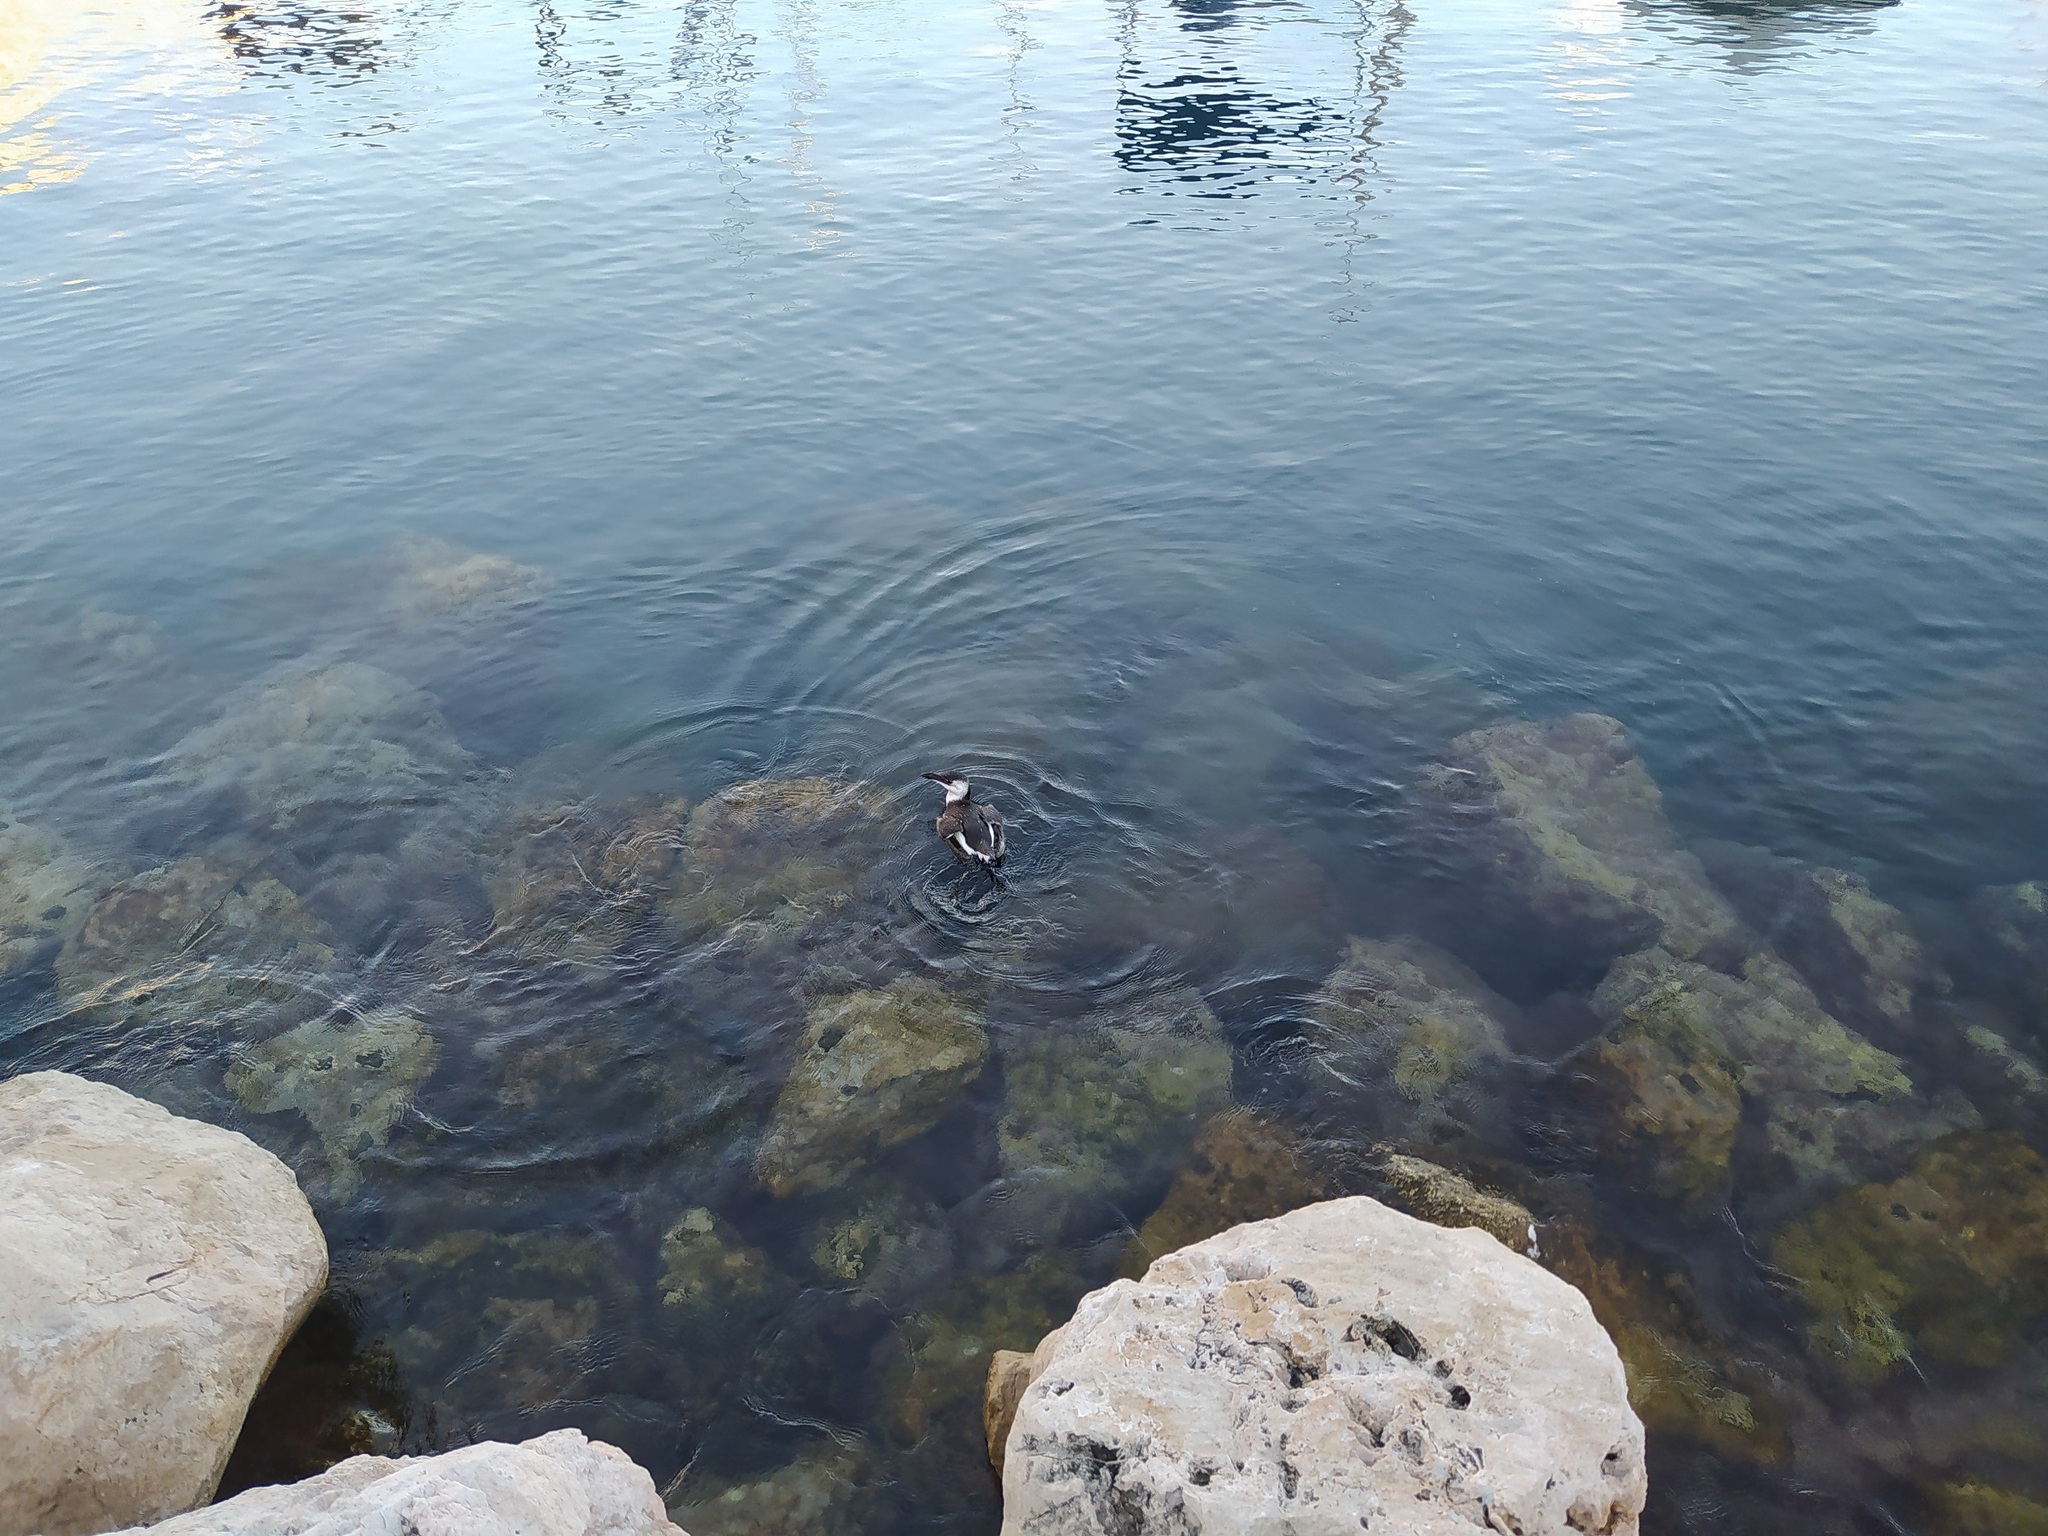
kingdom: Animalia
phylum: Chordata
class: Aves
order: Charadriiformes
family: Alcidae
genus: Alca
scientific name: Alca torda
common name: Razorbill
